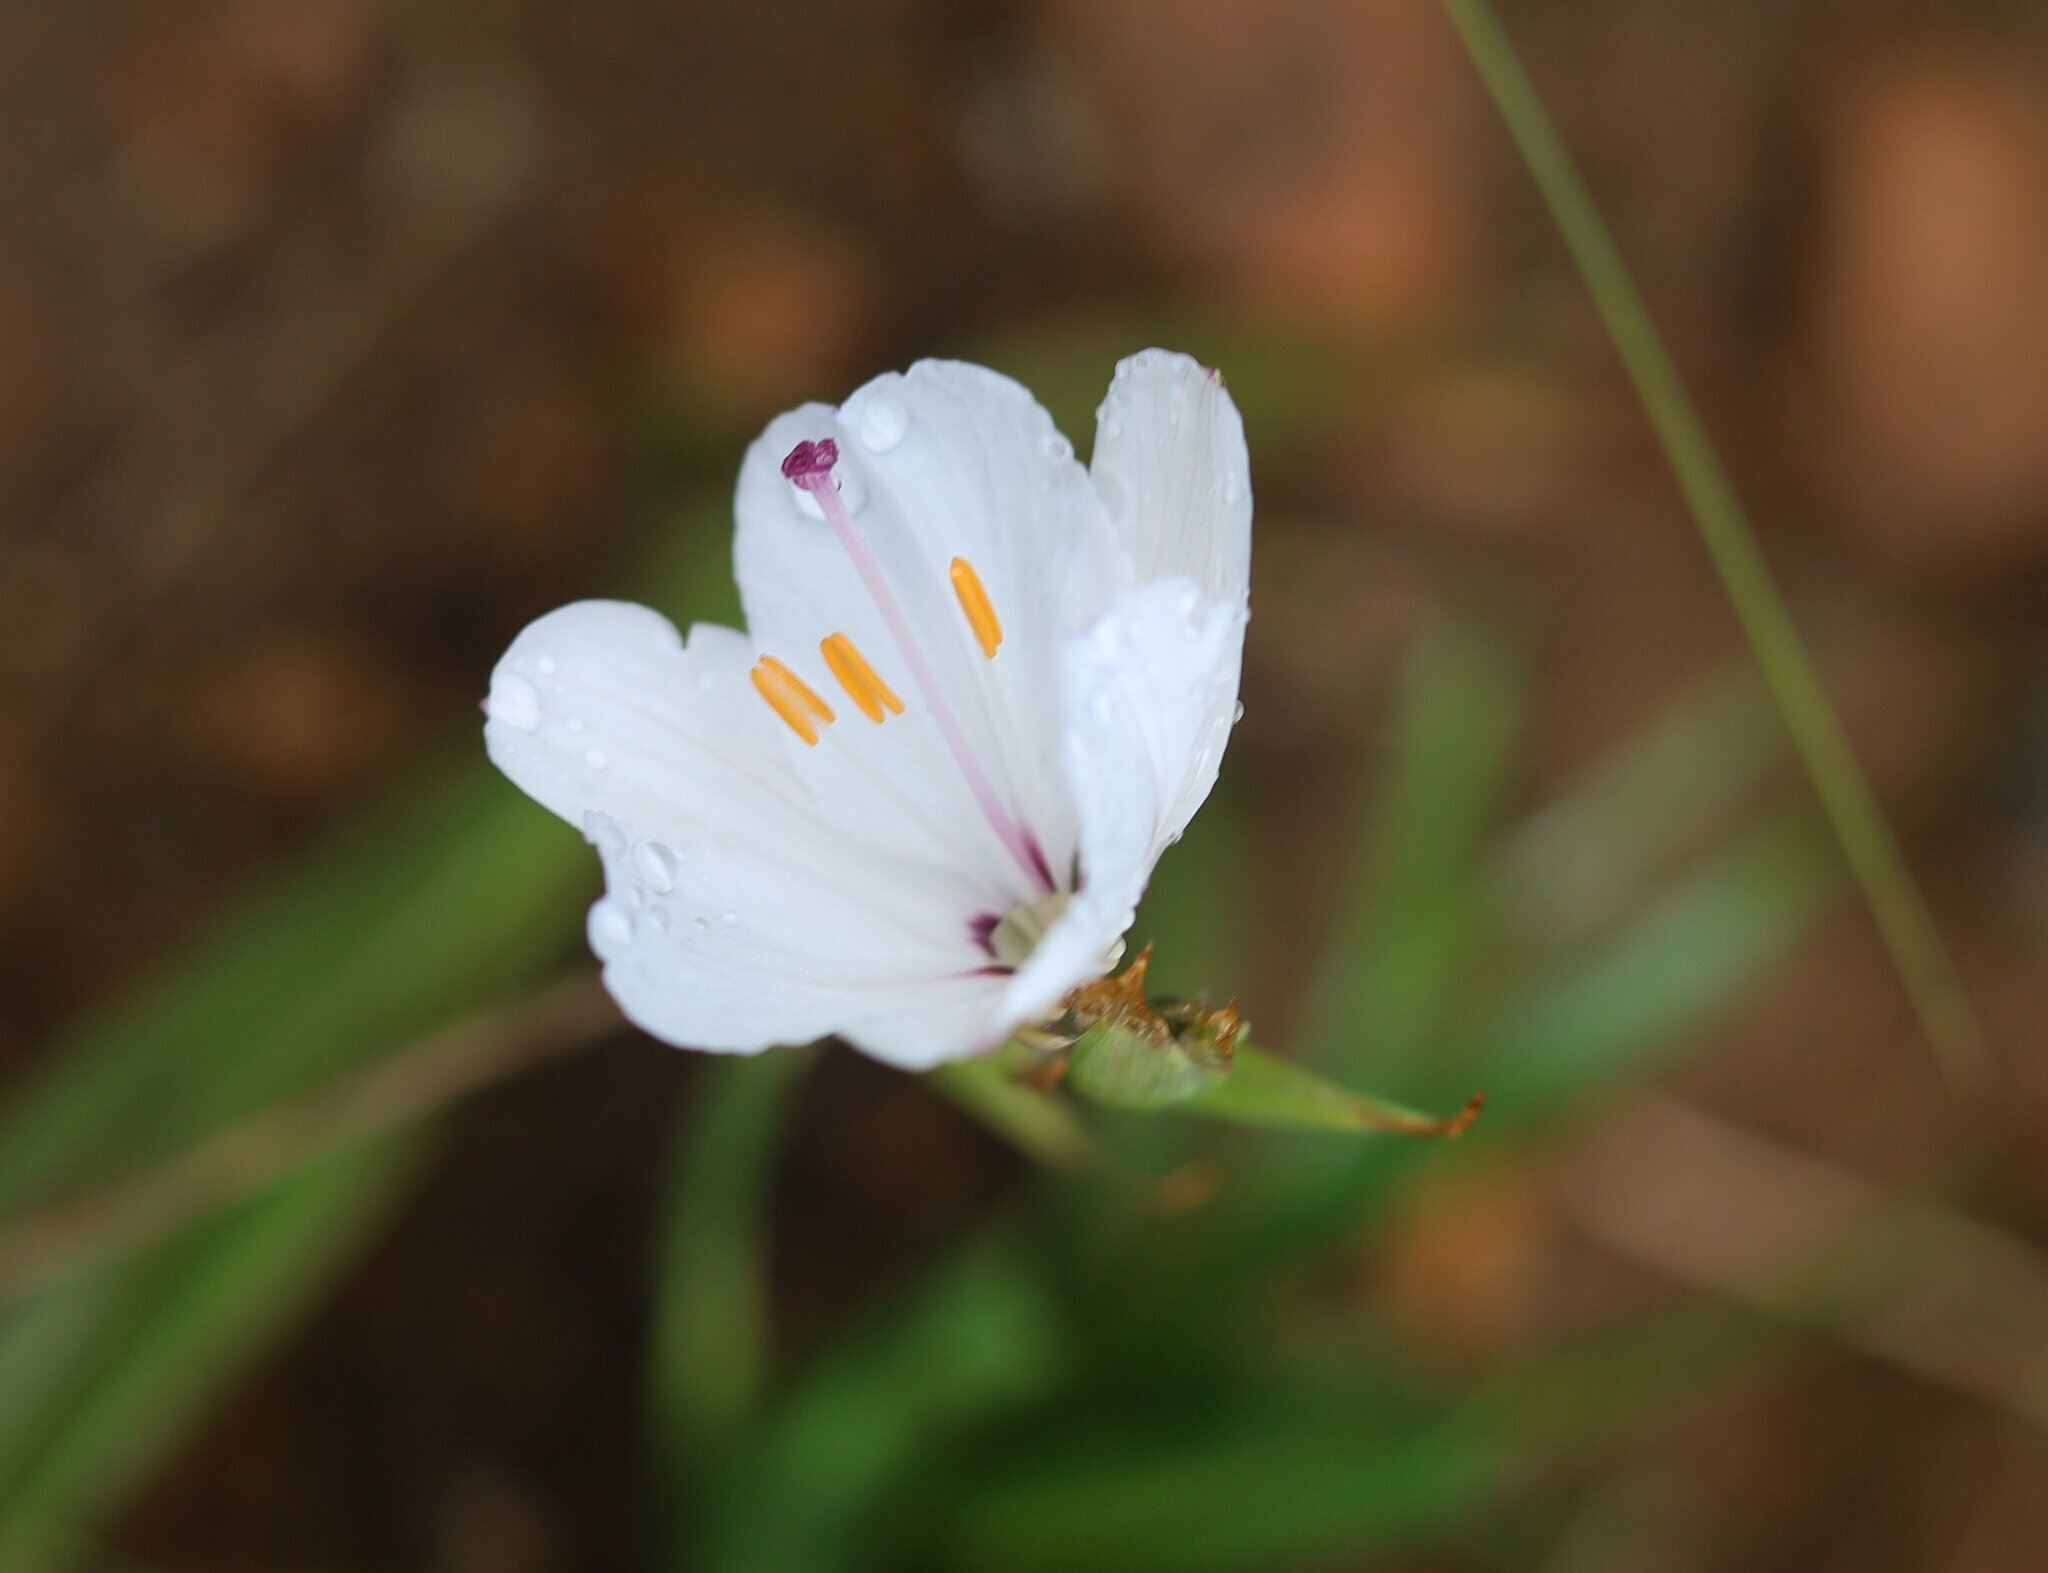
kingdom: Plantae
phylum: Tracheophyta
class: Liliopsida
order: Asparagales
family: Iridaceae
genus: Aristea
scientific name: Aristea spiralis
